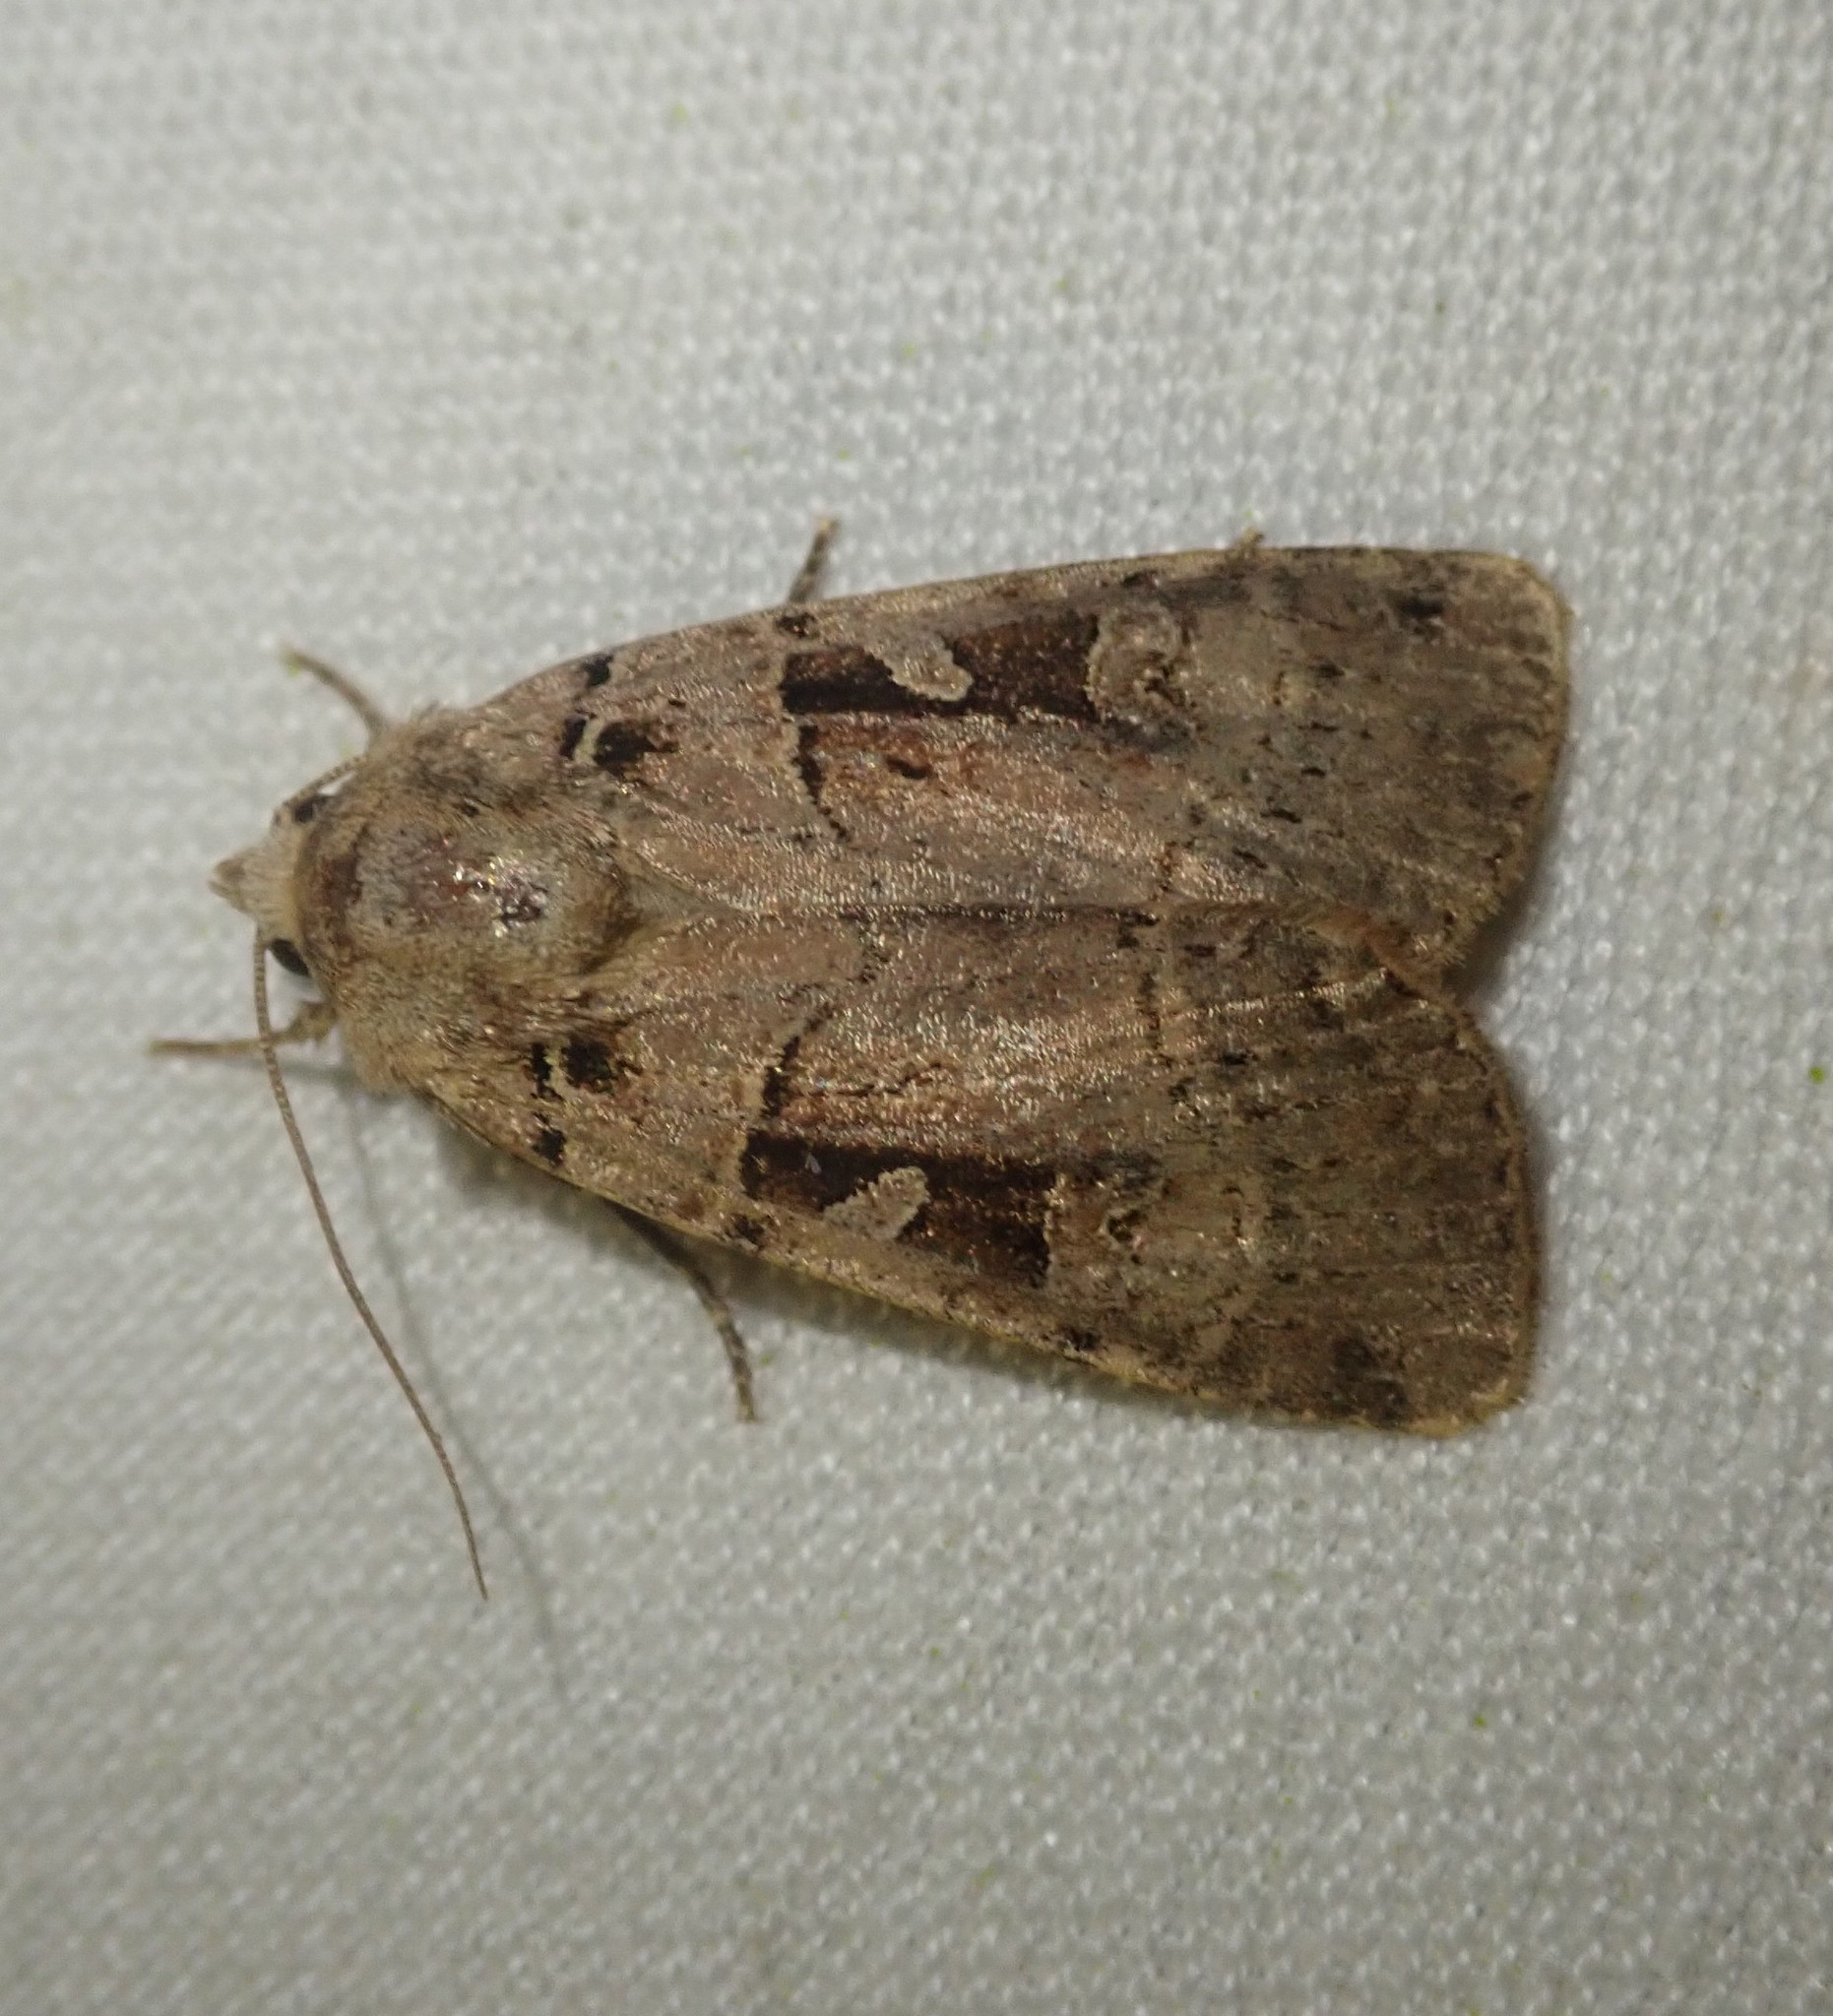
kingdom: Animalia
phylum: Arthropoda
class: Insecta
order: Lepidoptera
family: Noctuidae
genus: Xestia
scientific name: Xestia triangulum
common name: Double square-spot
